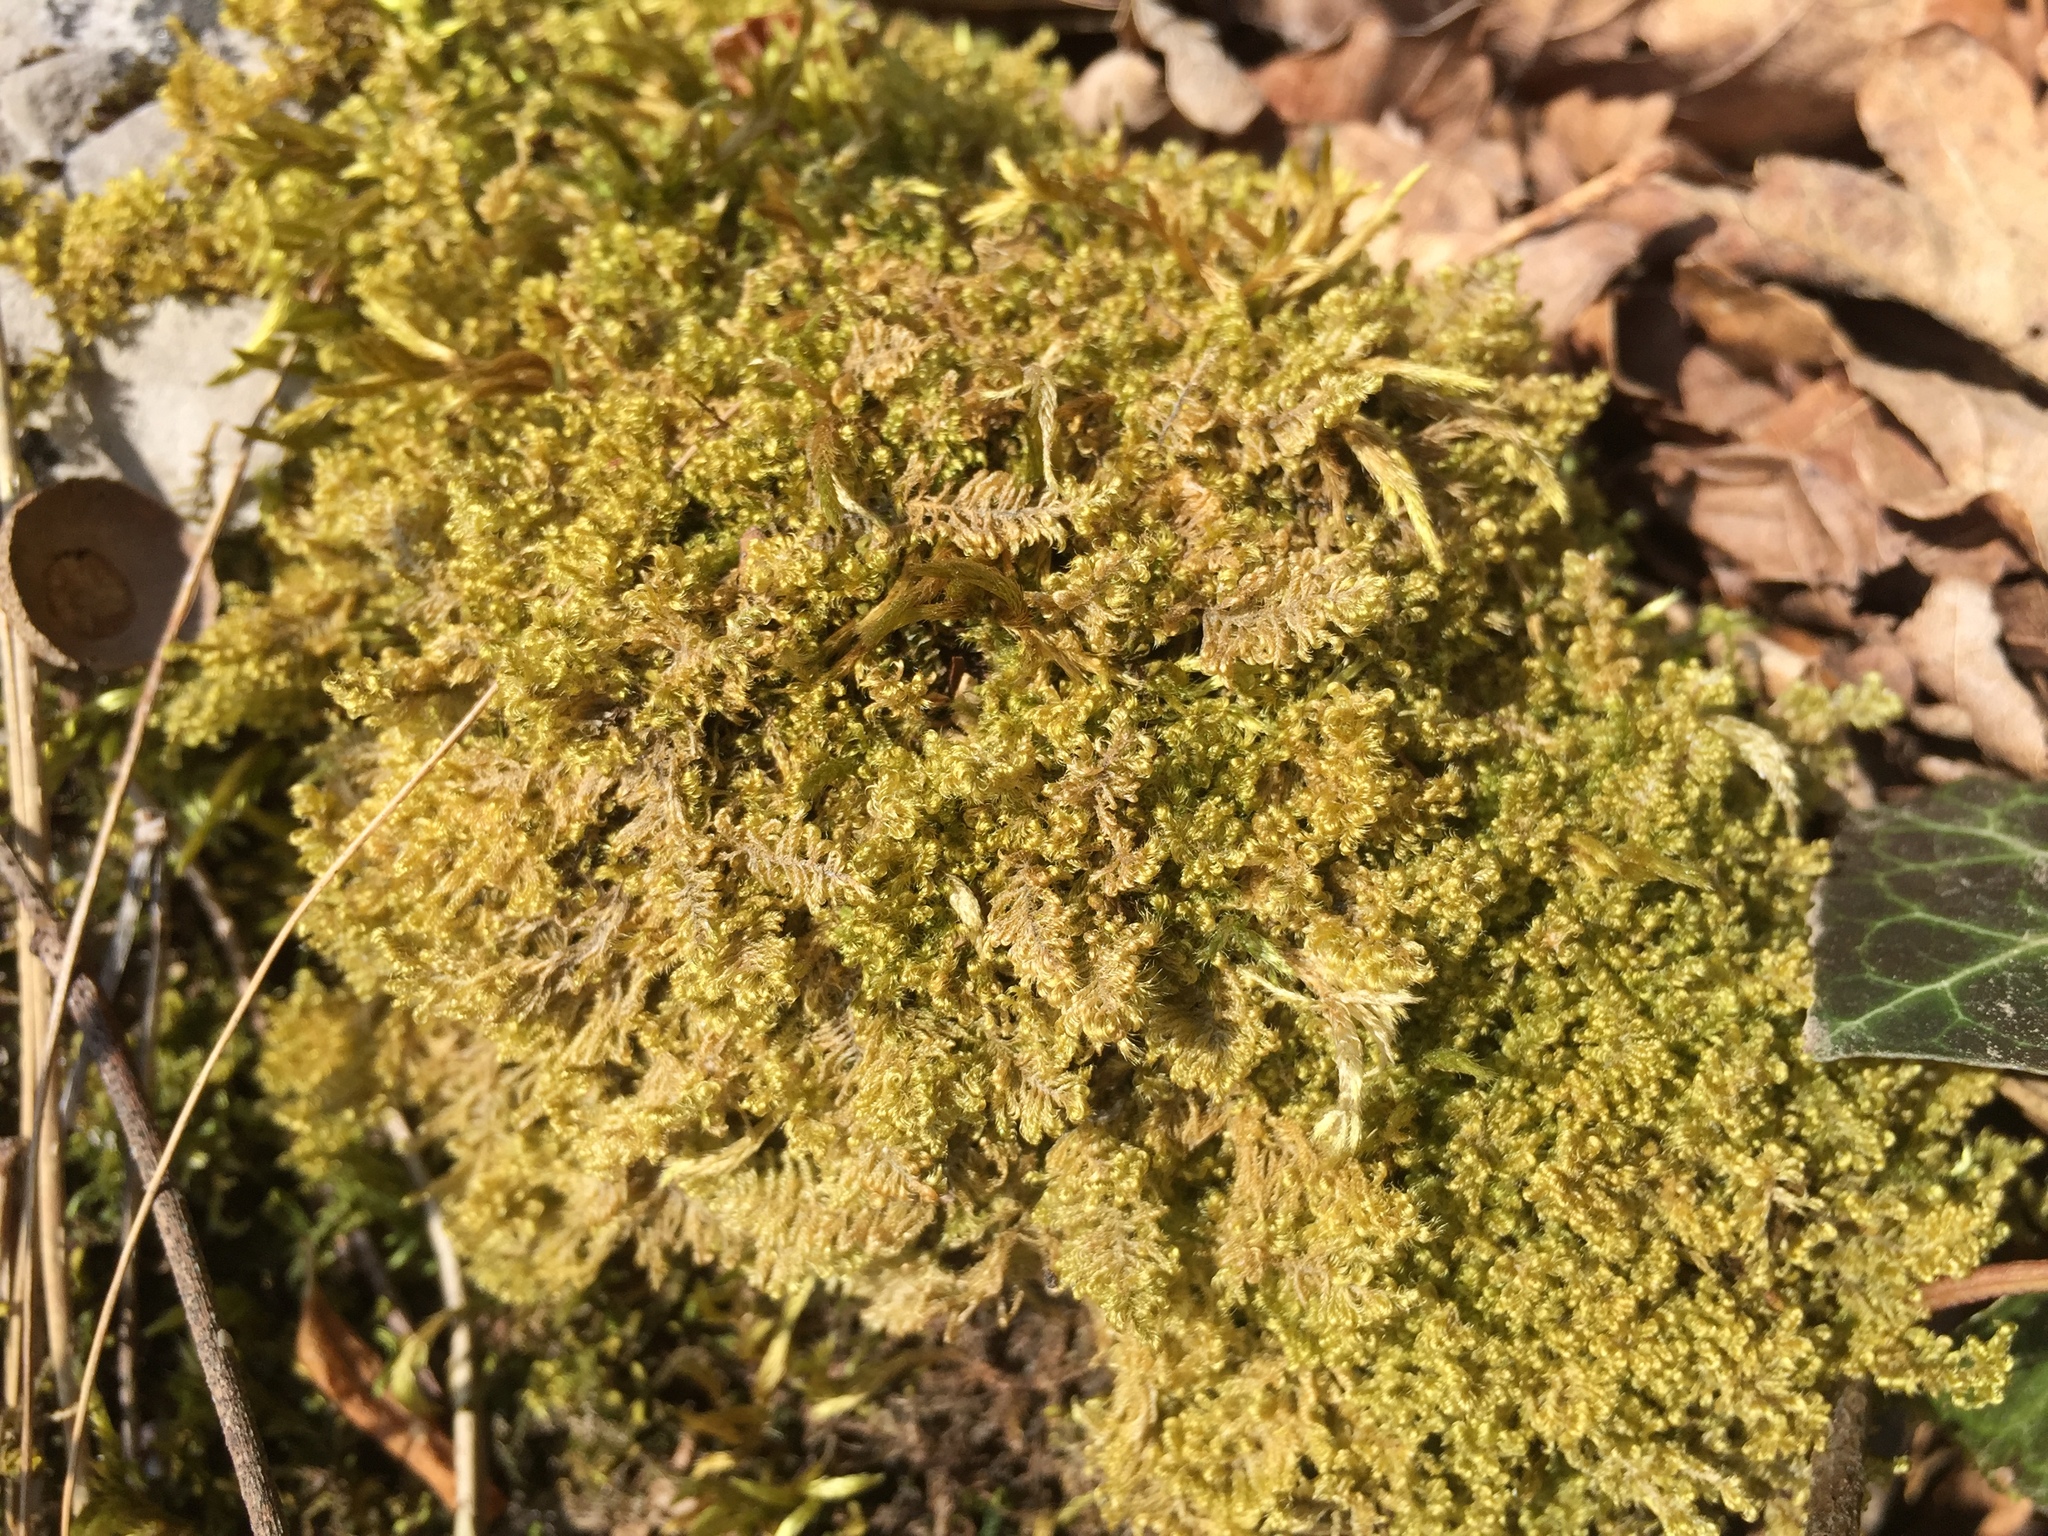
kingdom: Plantae
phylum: Bryophyta
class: Bryopsida
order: Hypnales
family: Myuriaceae
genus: Ctenidium
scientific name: Ctenidium molluscum
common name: Chalk comb-moss
